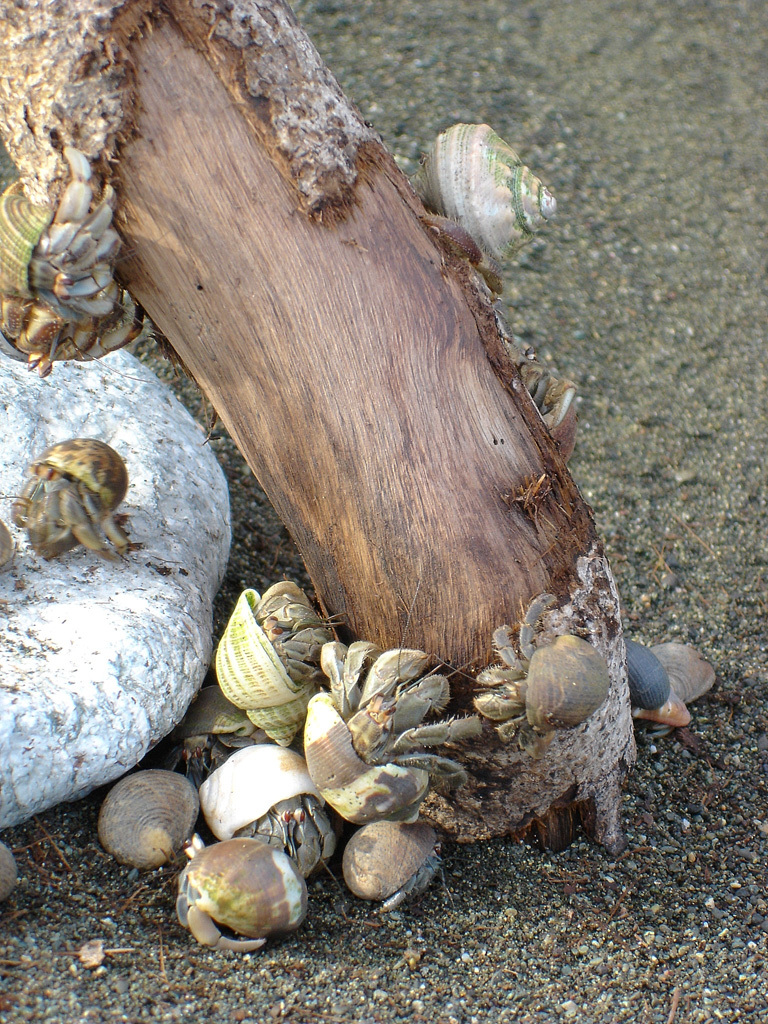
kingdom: Animalia
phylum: Arthropoda
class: Malacostraca
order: Decapoda
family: Coenobitidae
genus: Coenobita
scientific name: Coenobita compressus
